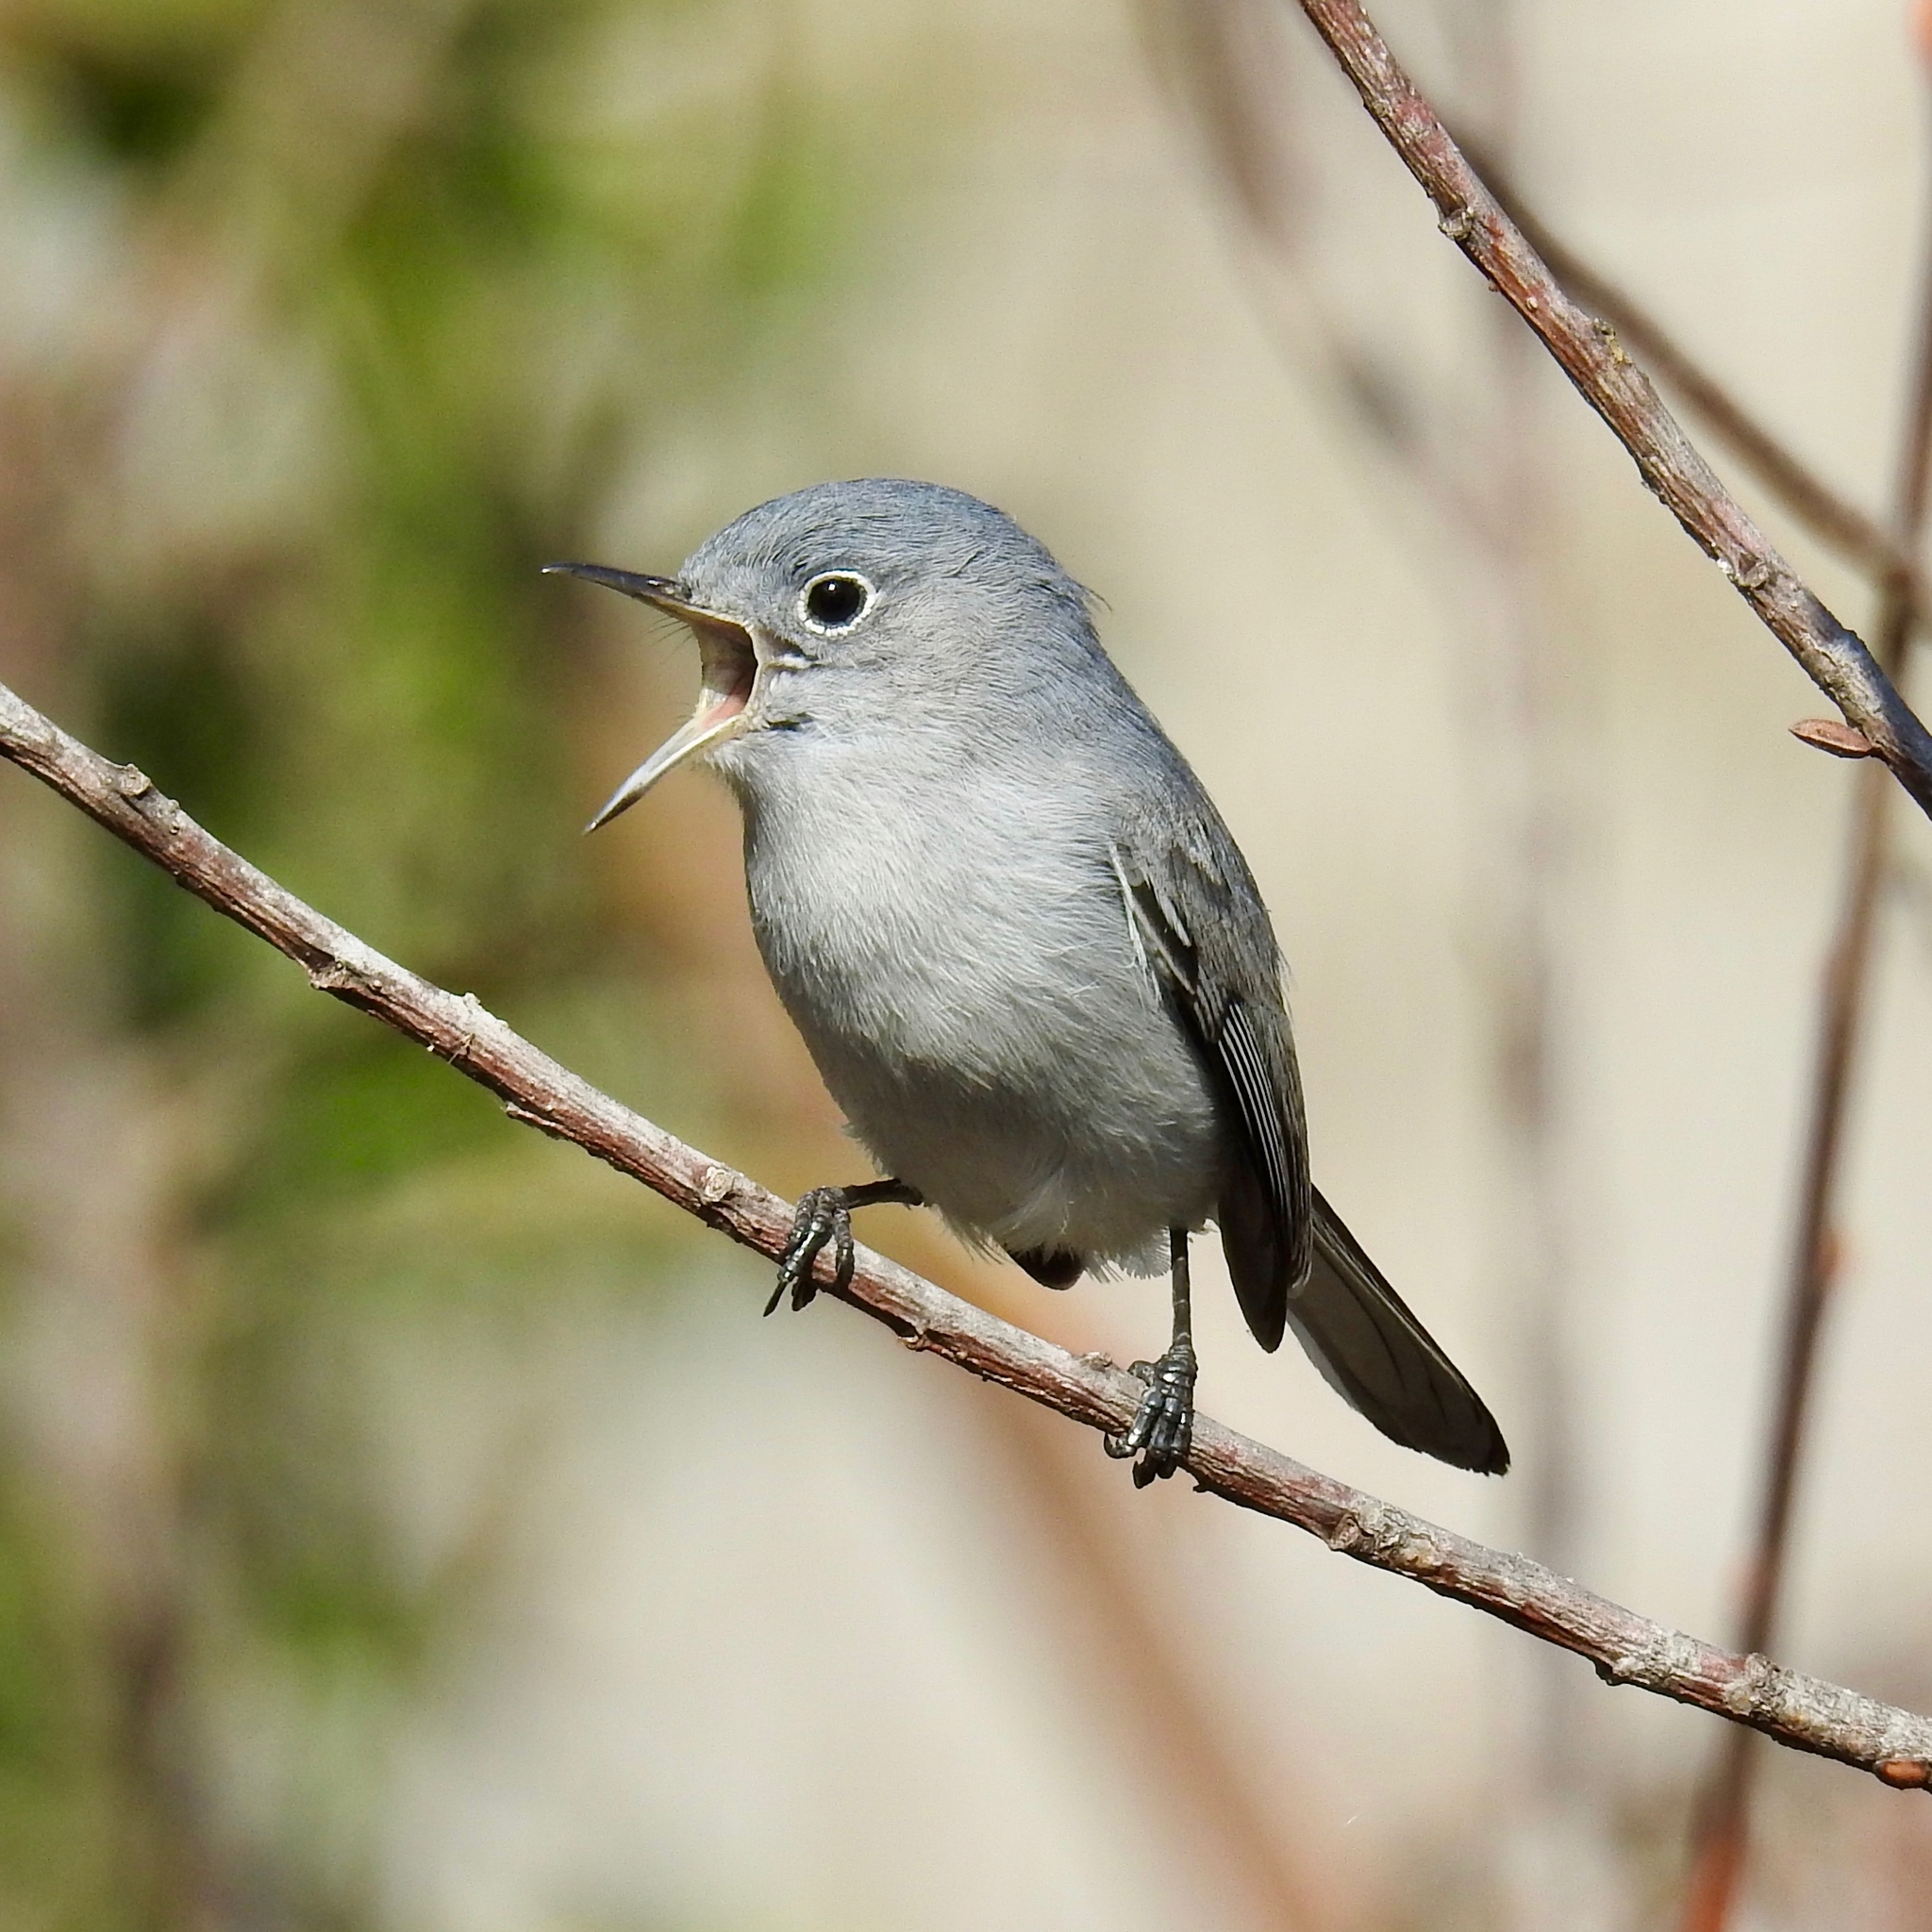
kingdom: Animalia
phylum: Chordata
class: Aves
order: Passeriformes
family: Polioptilidae
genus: Polioptila
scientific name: Polioptila caerulea
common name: Blue-gray gnatcatcher
